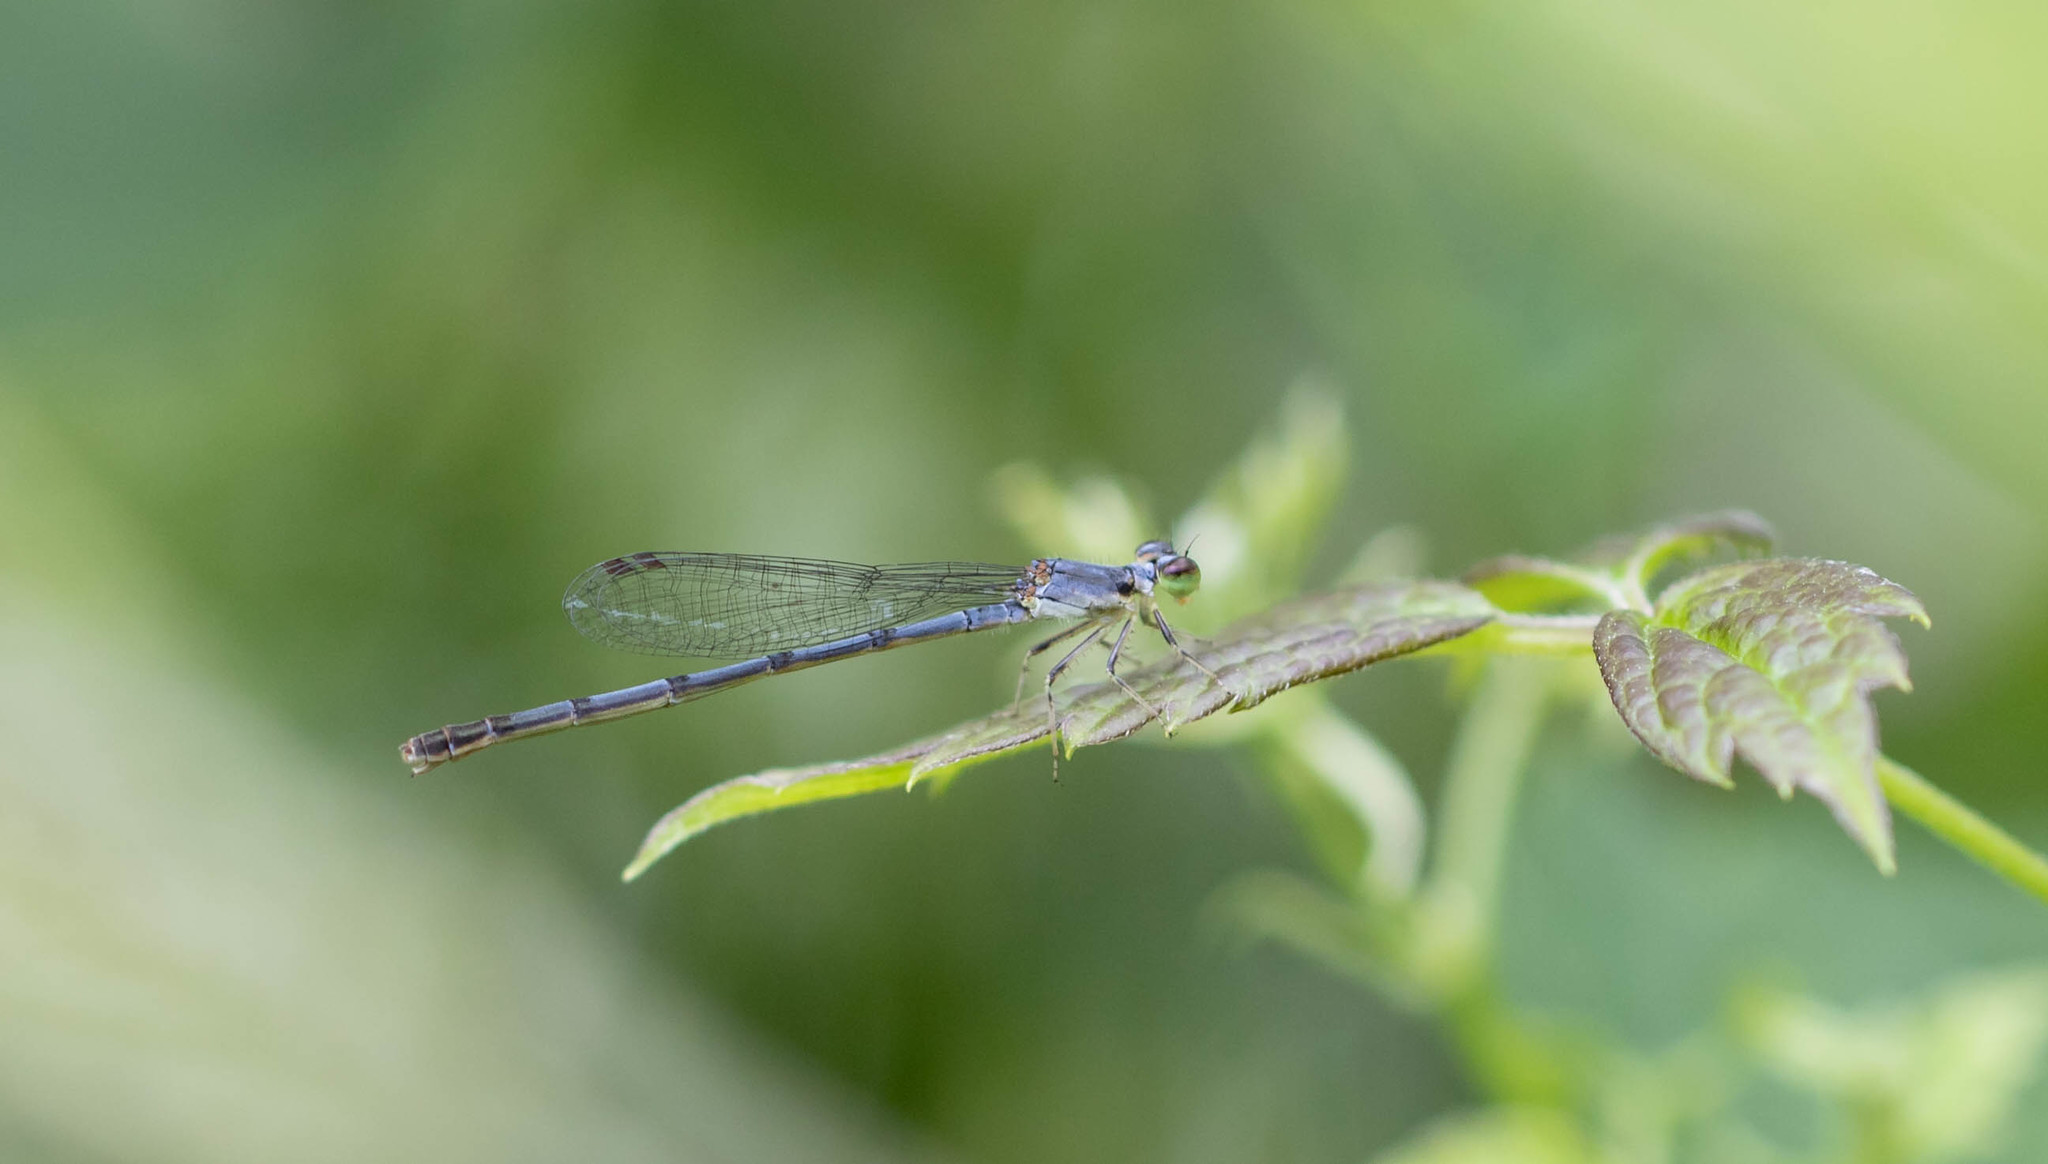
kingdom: Animalia
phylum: Arthropoda
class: Insecta
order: Odonata
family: Coenagrionidae
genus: Ischnura
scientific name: Ischnura posita
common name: Fragile forktail
